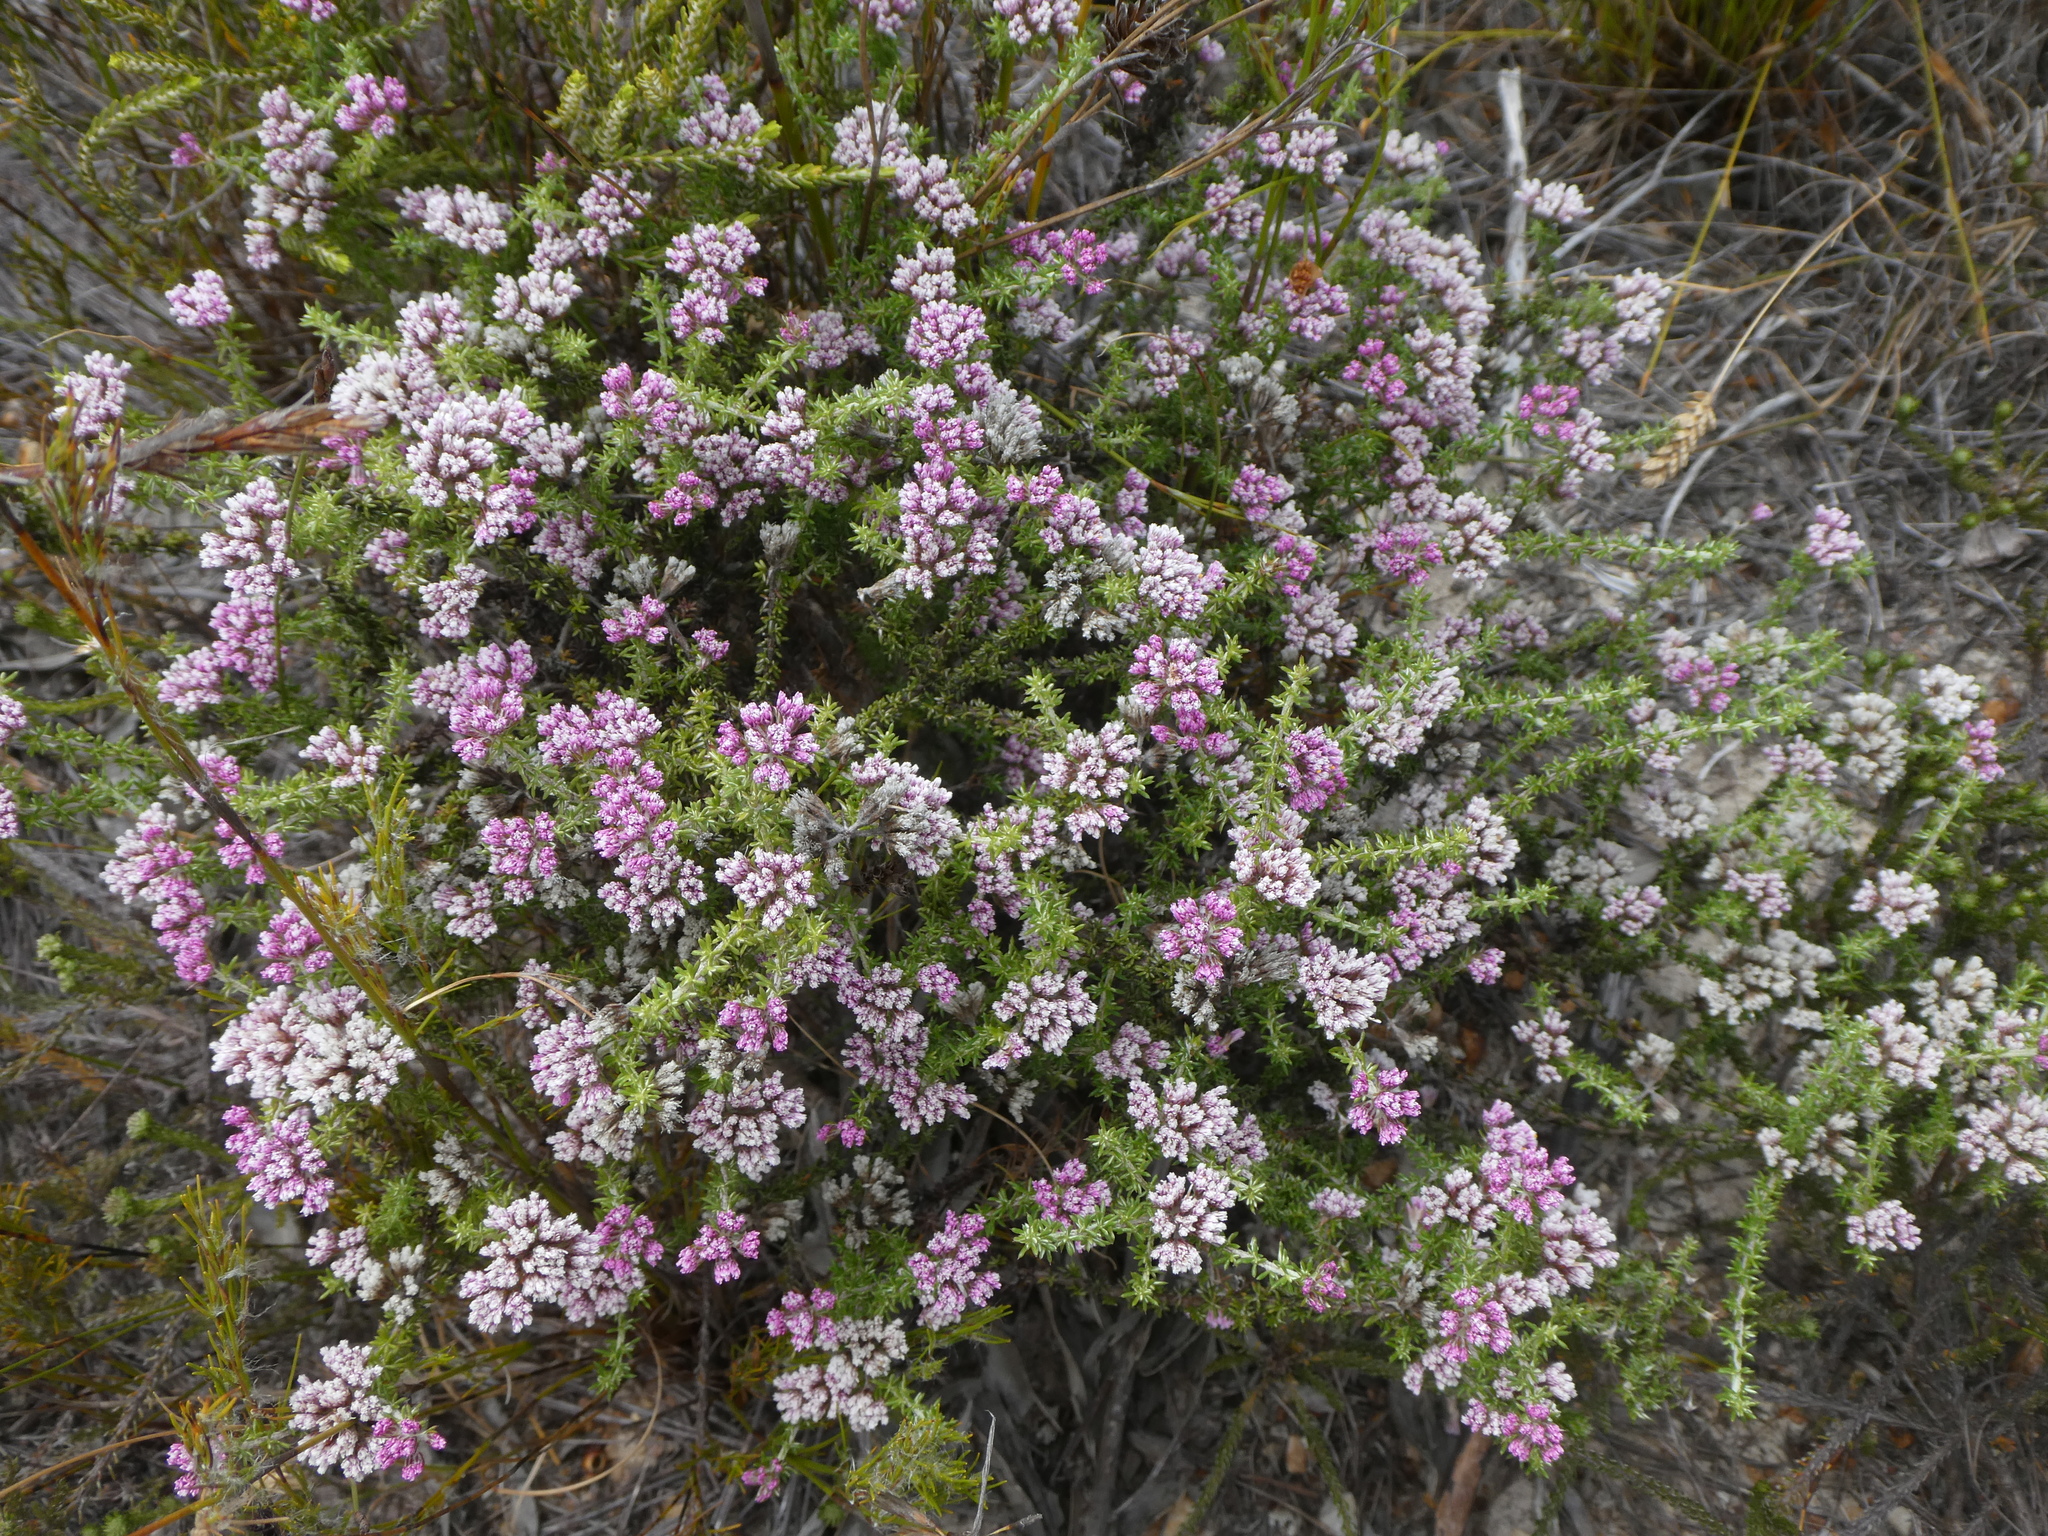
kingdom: Plantae
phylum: Tracheophyta
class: Magnoliopsida
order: Asterales
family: Asteraceae
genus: Metalasia
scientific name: Metalasia erubescens
